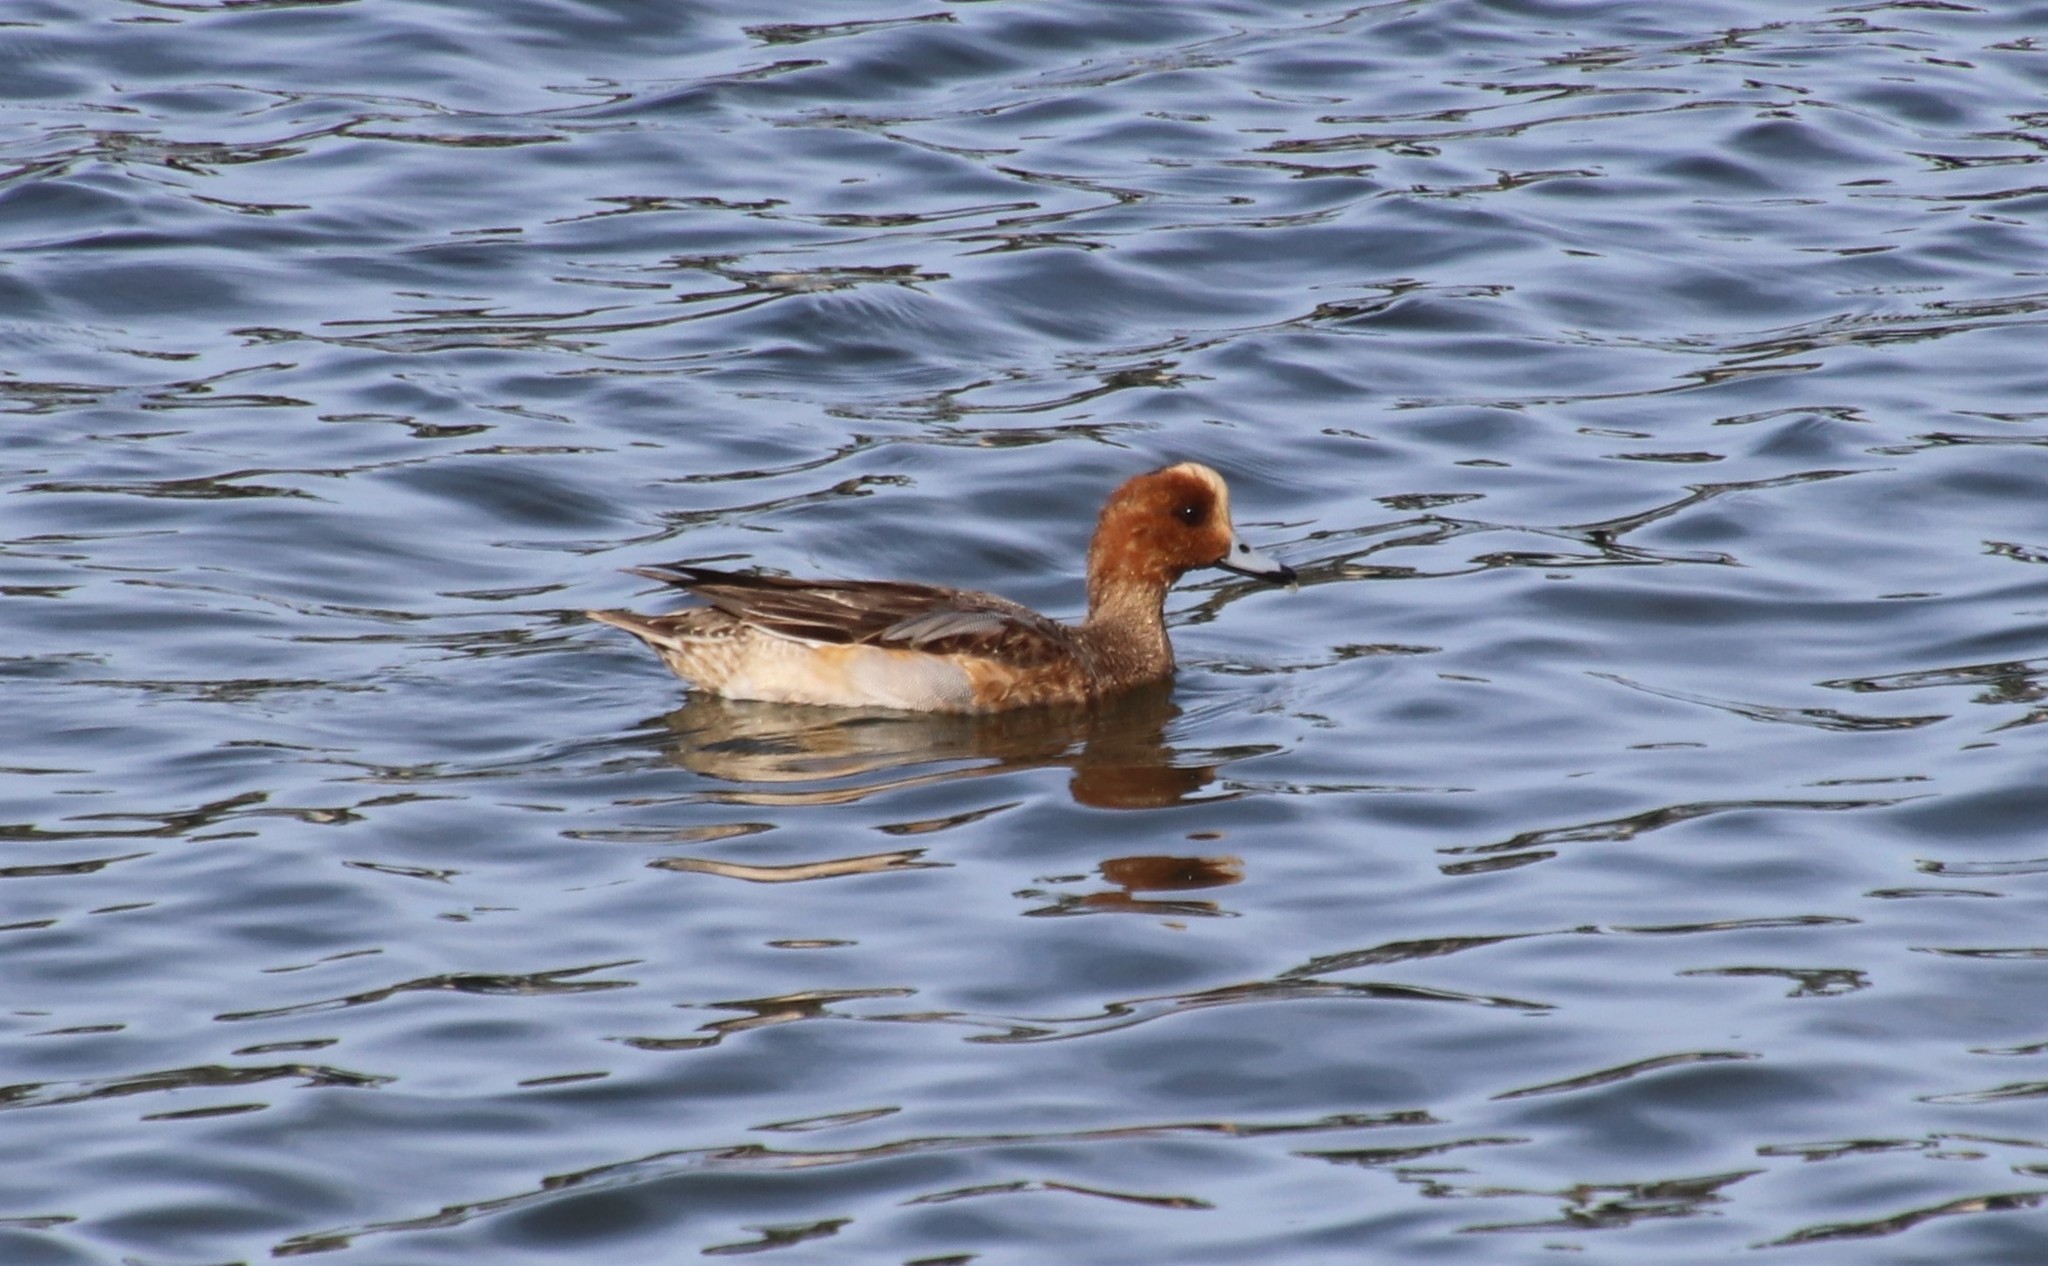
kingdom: Animalia
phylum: Chordata
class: Aves
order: Anseriformes
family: Anatidae
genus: Mareca
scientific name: Mareca penelope
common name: Eurasian wigeon
